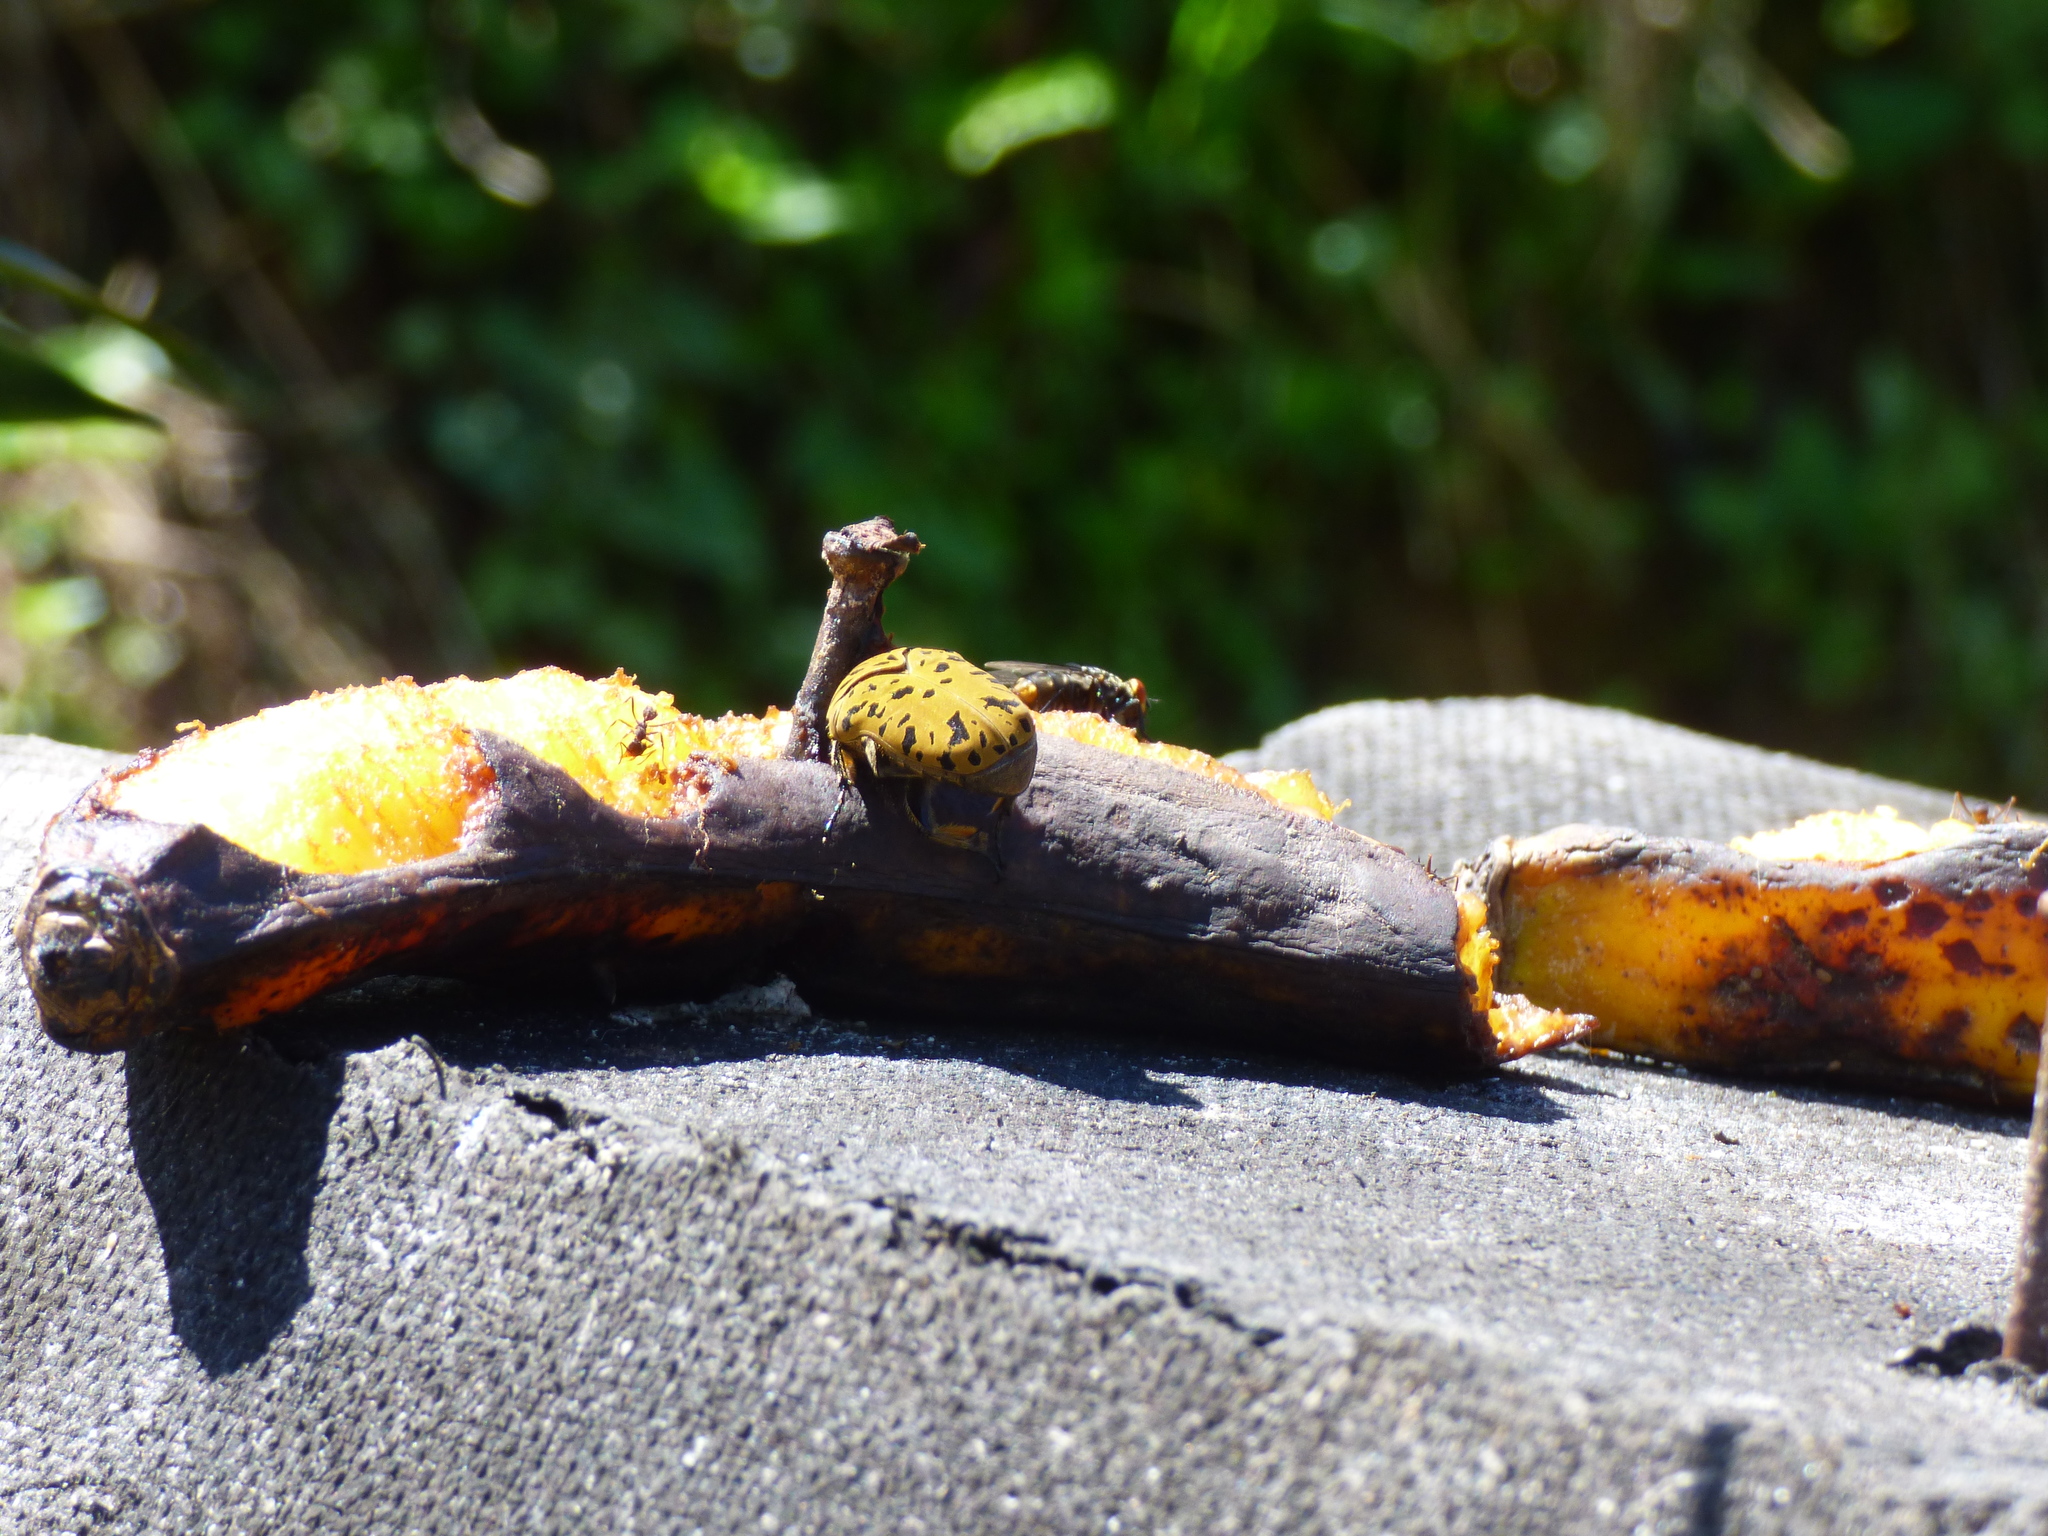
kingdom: Animalia
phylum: Arthropoda
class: Insecta
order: Coleoptera
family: Scarabaeidae
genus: Gymnetis
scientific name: Gymnetis pantherina
